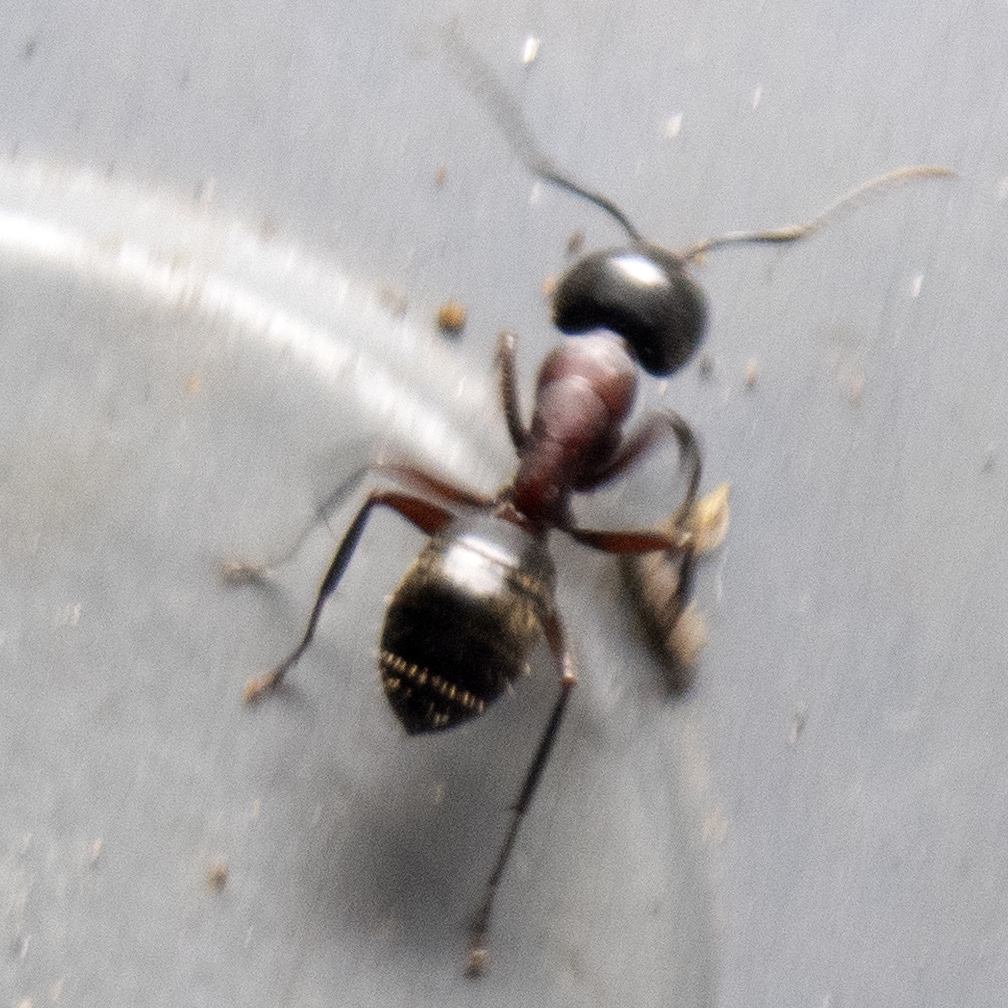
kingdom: Animalia
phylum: Arthropoda
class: Insecta
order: Hymenoptera
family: Formicidae
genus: Camponotus
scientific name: Camponotus novaeboracensis
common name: New york carpenter ant
